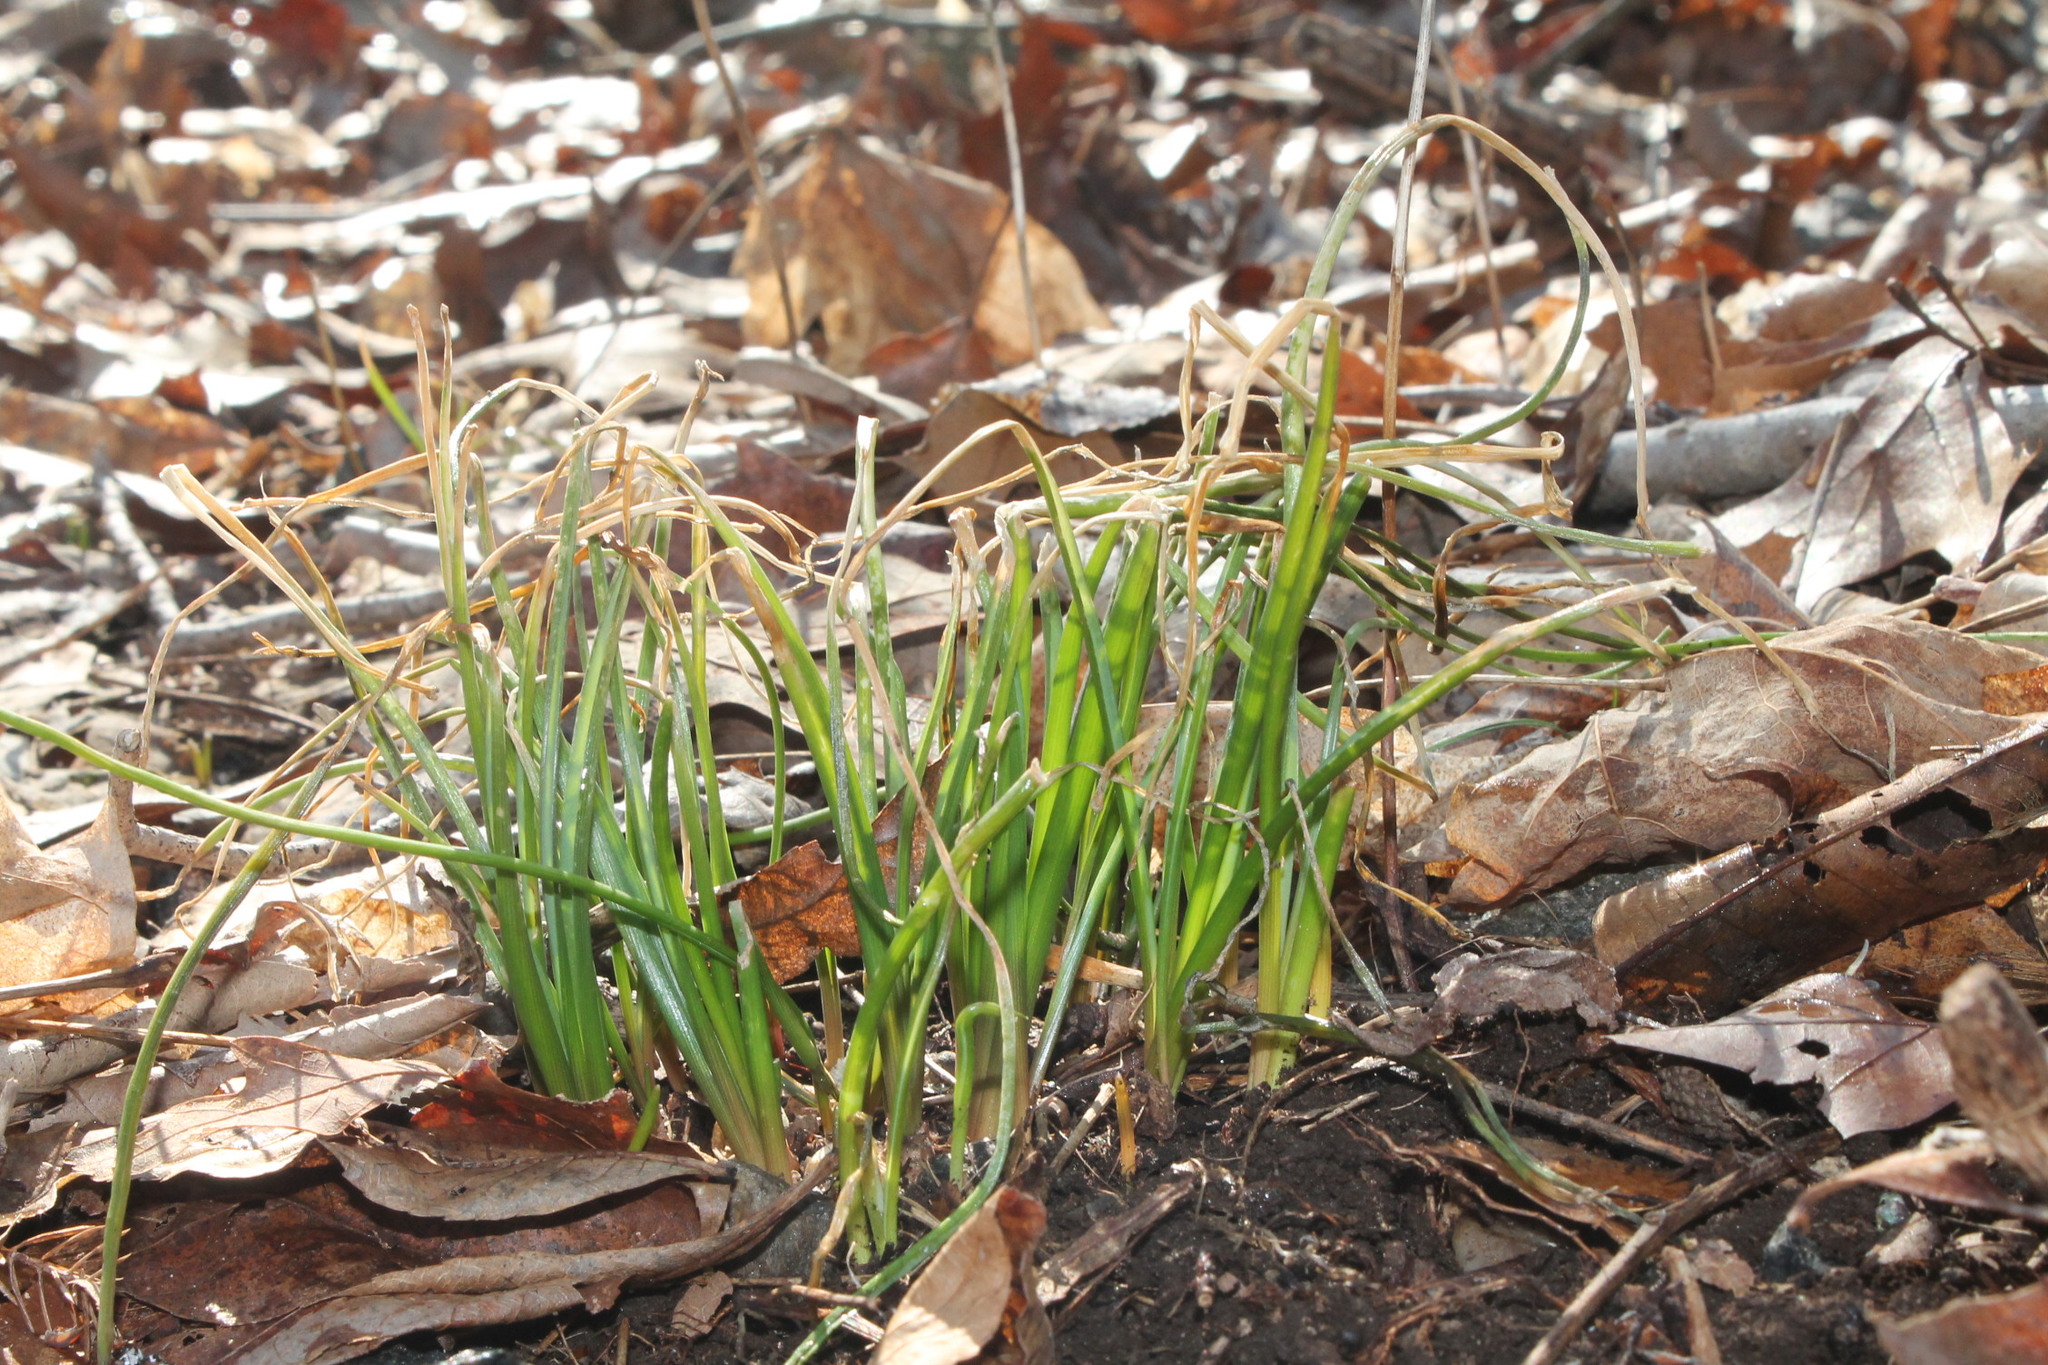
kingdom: Plantae
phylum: Tracheophyta
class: Liliopsida
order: Asparagales
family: Amaryllidaceae
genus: Allium
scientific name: Allium vineale
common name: Crow garlic
